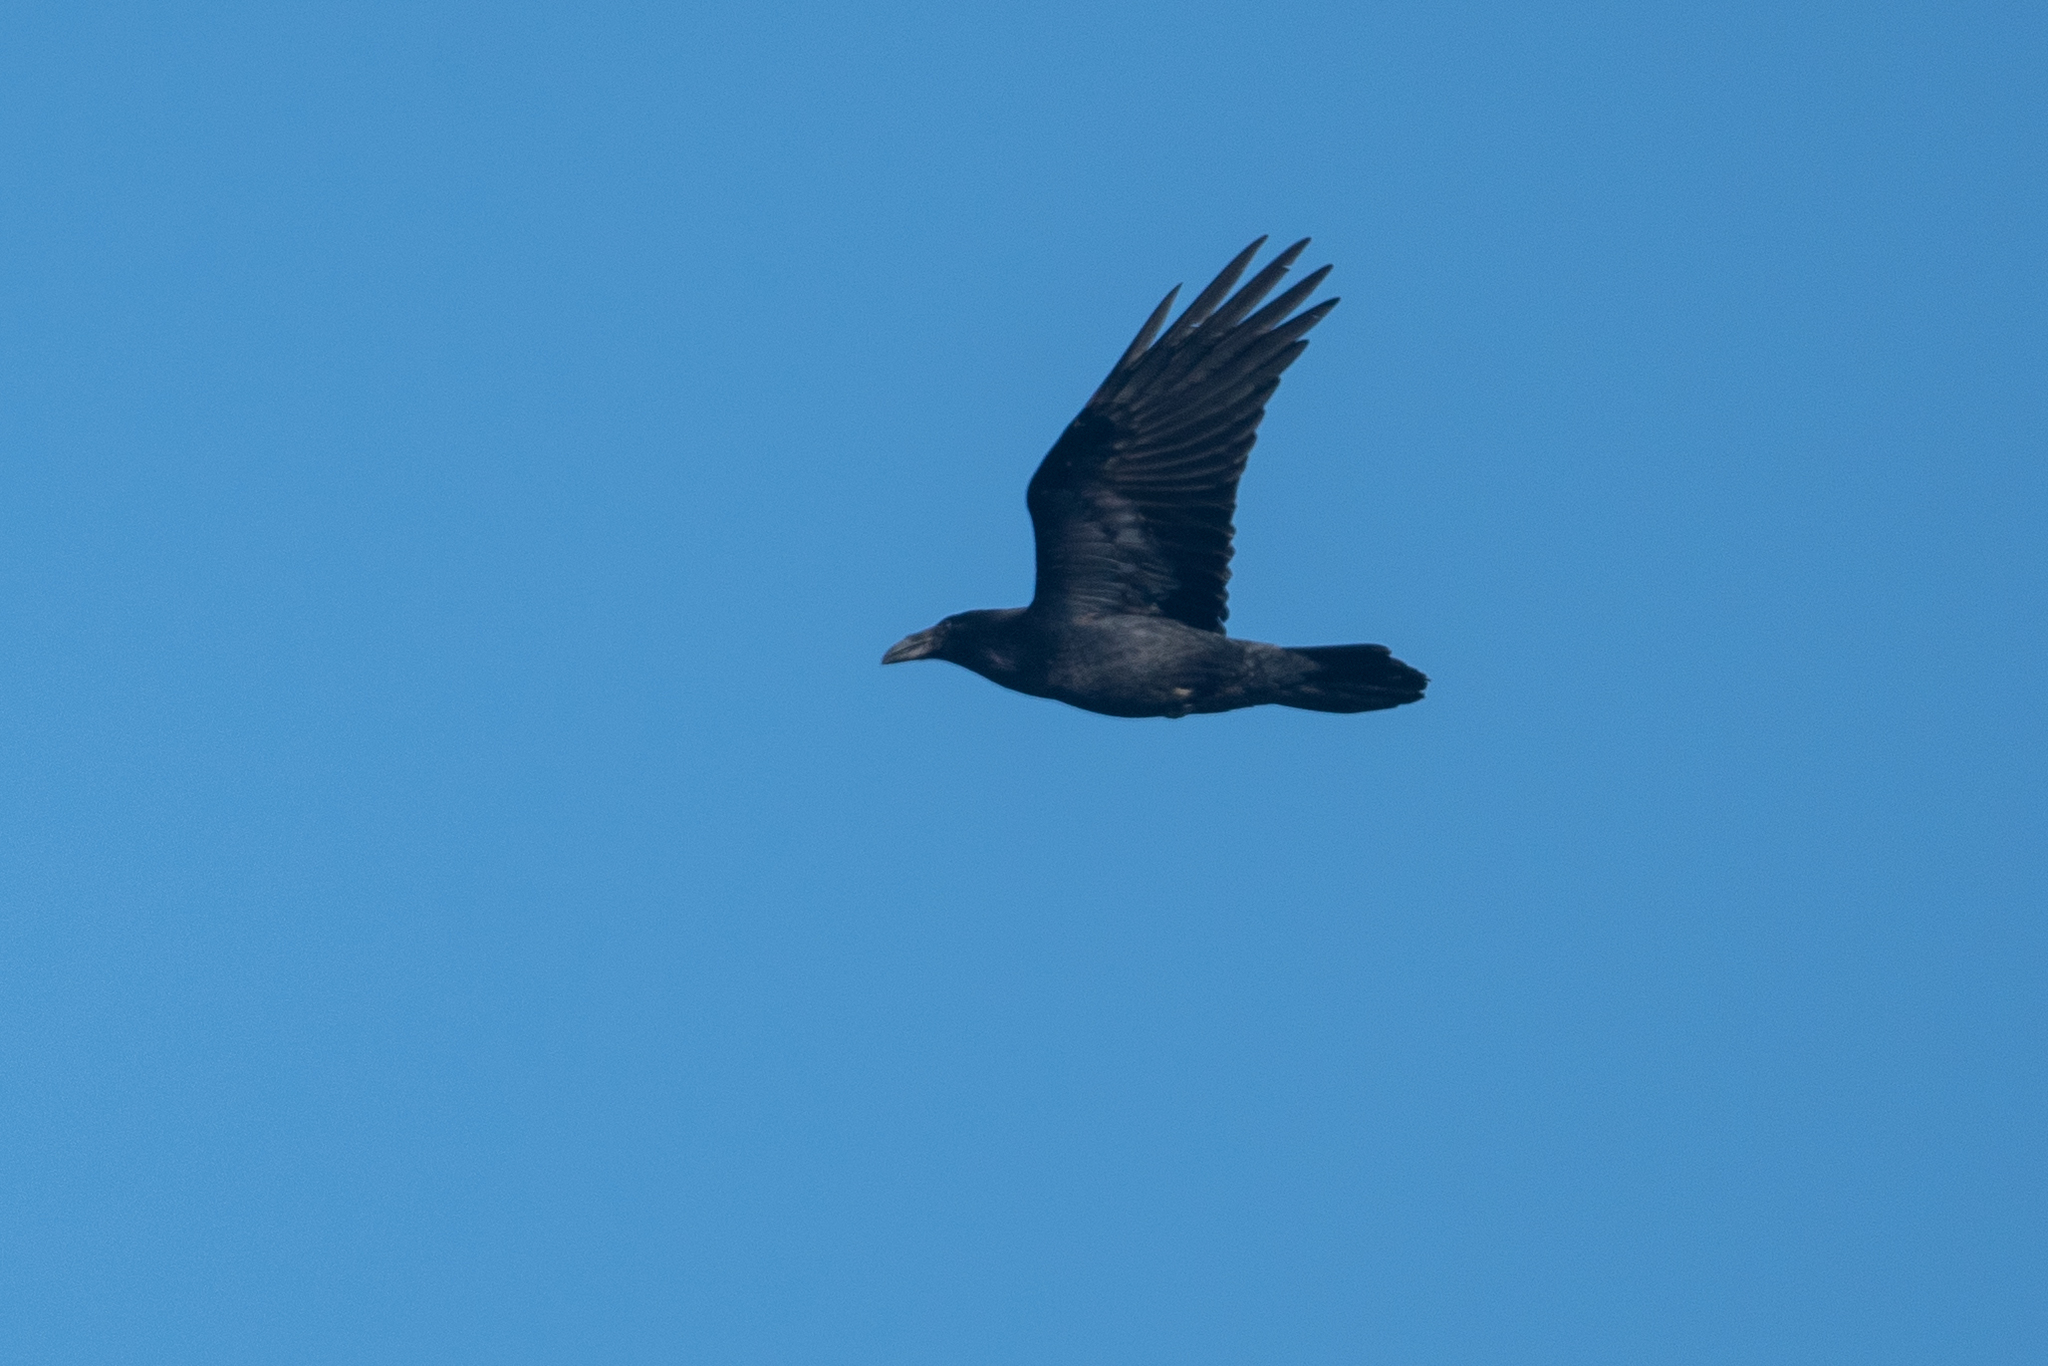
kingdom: Animalia
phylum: Chordata
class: Aves
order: Passeriformes
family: Corvidae
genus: Corvus
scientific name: Corvus corax
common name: Common raven
